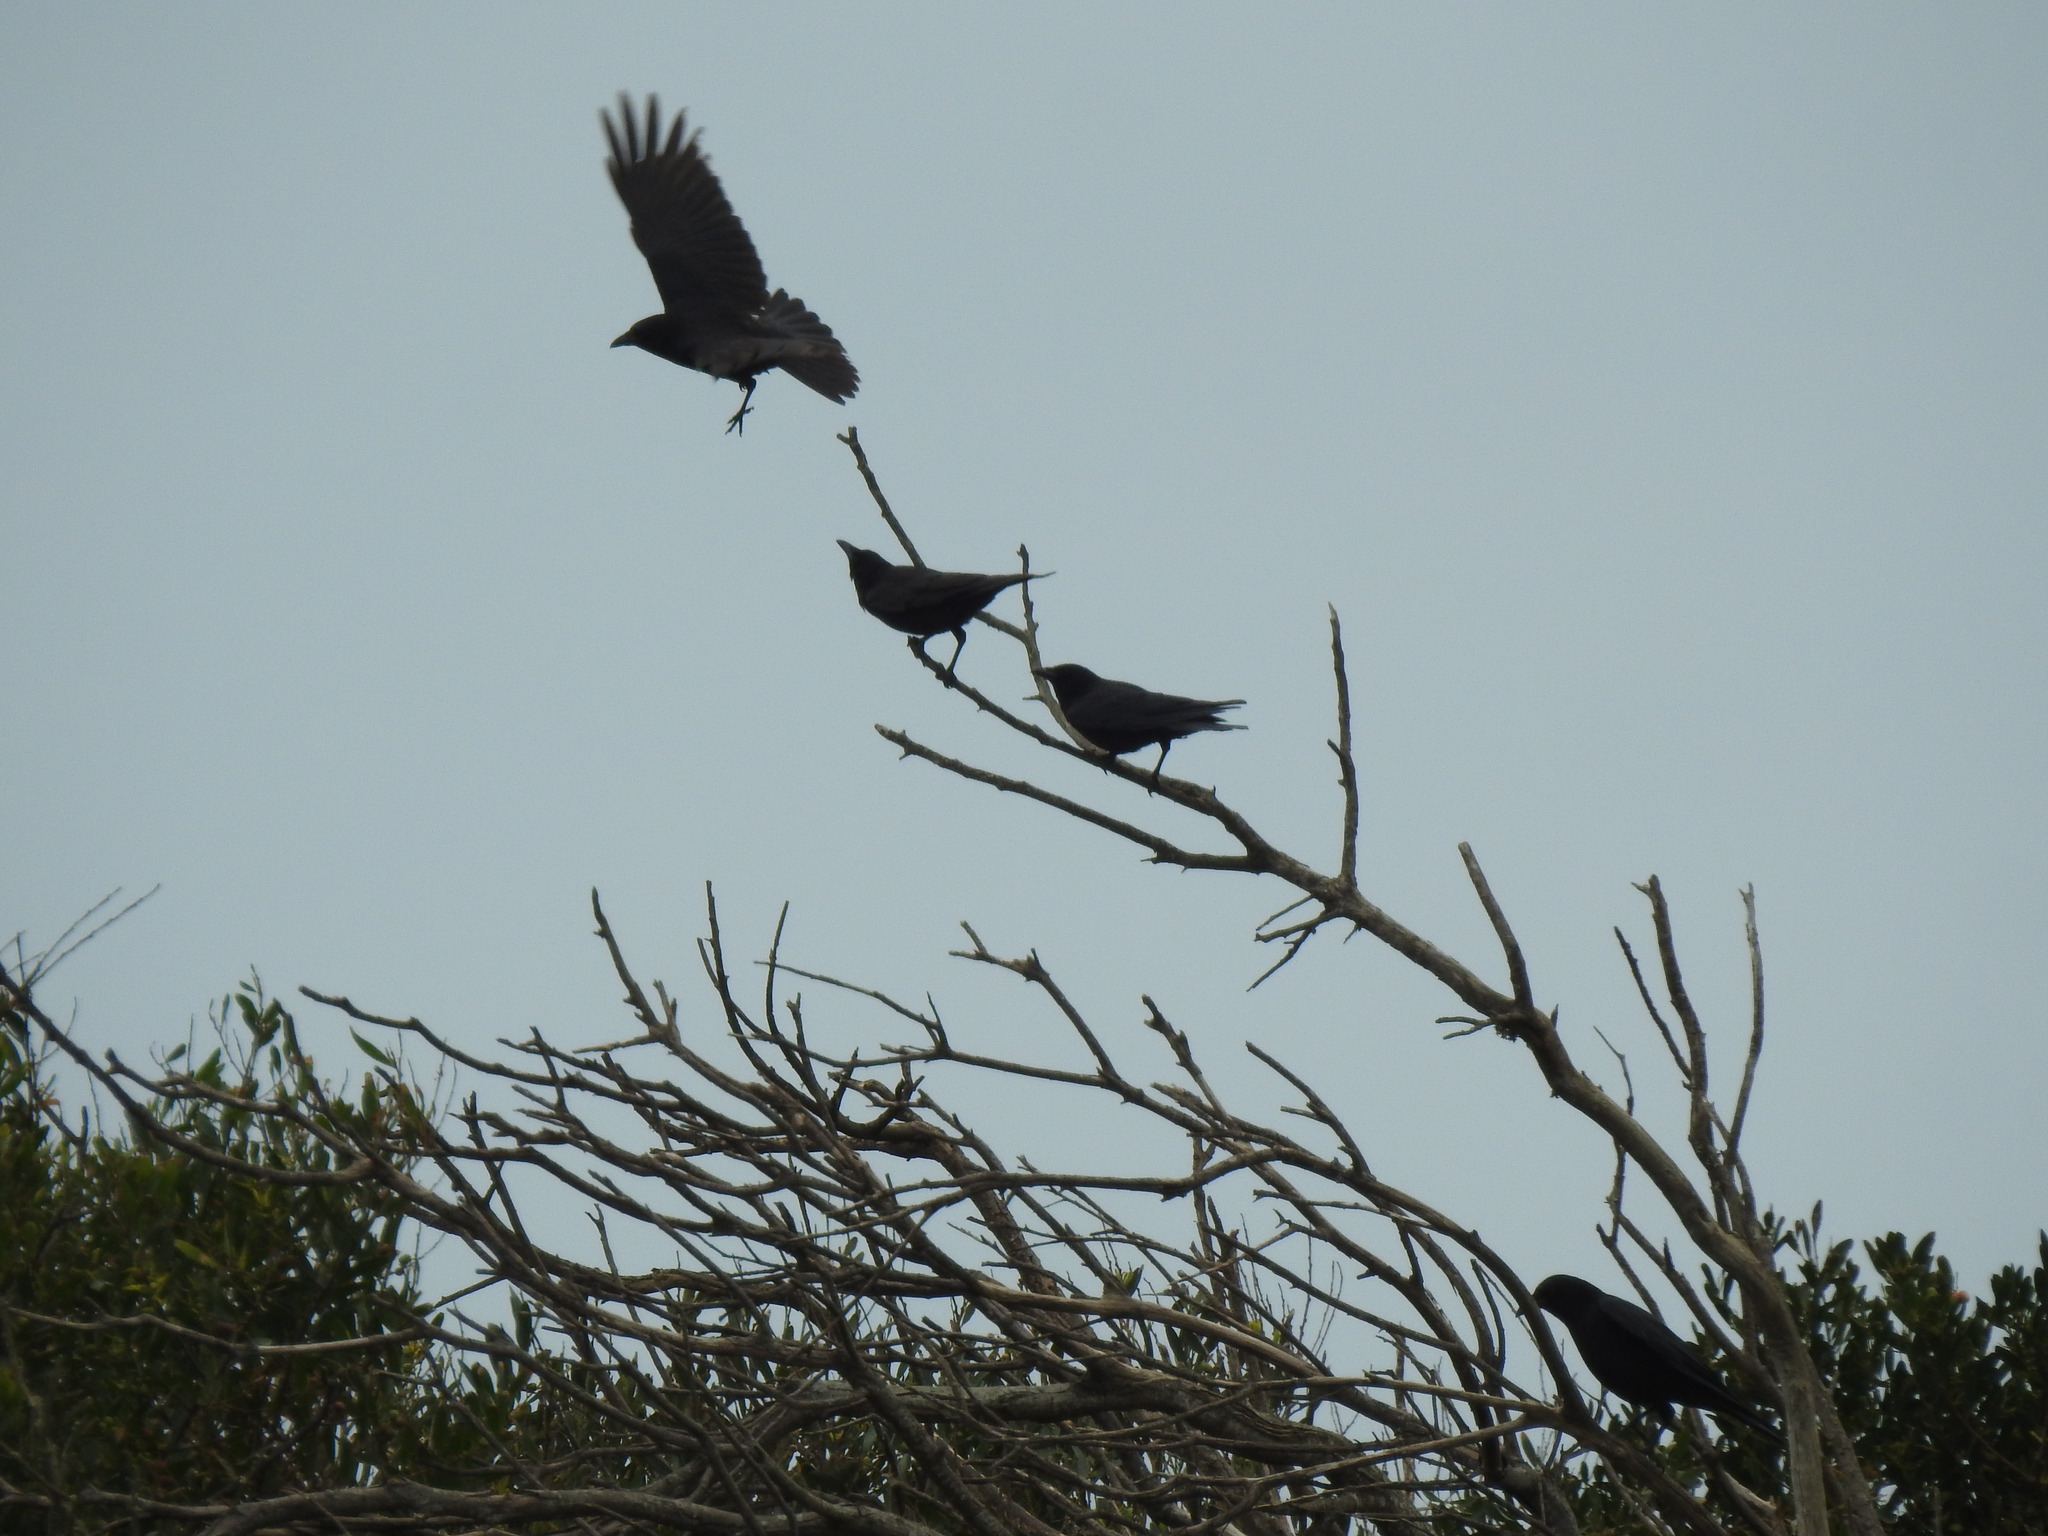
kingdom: Animalia
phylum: Chordata
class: Aves
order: Passeriformes
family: Corvidae
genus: Corvus
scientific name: Corvus corone
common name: Carrion crow
